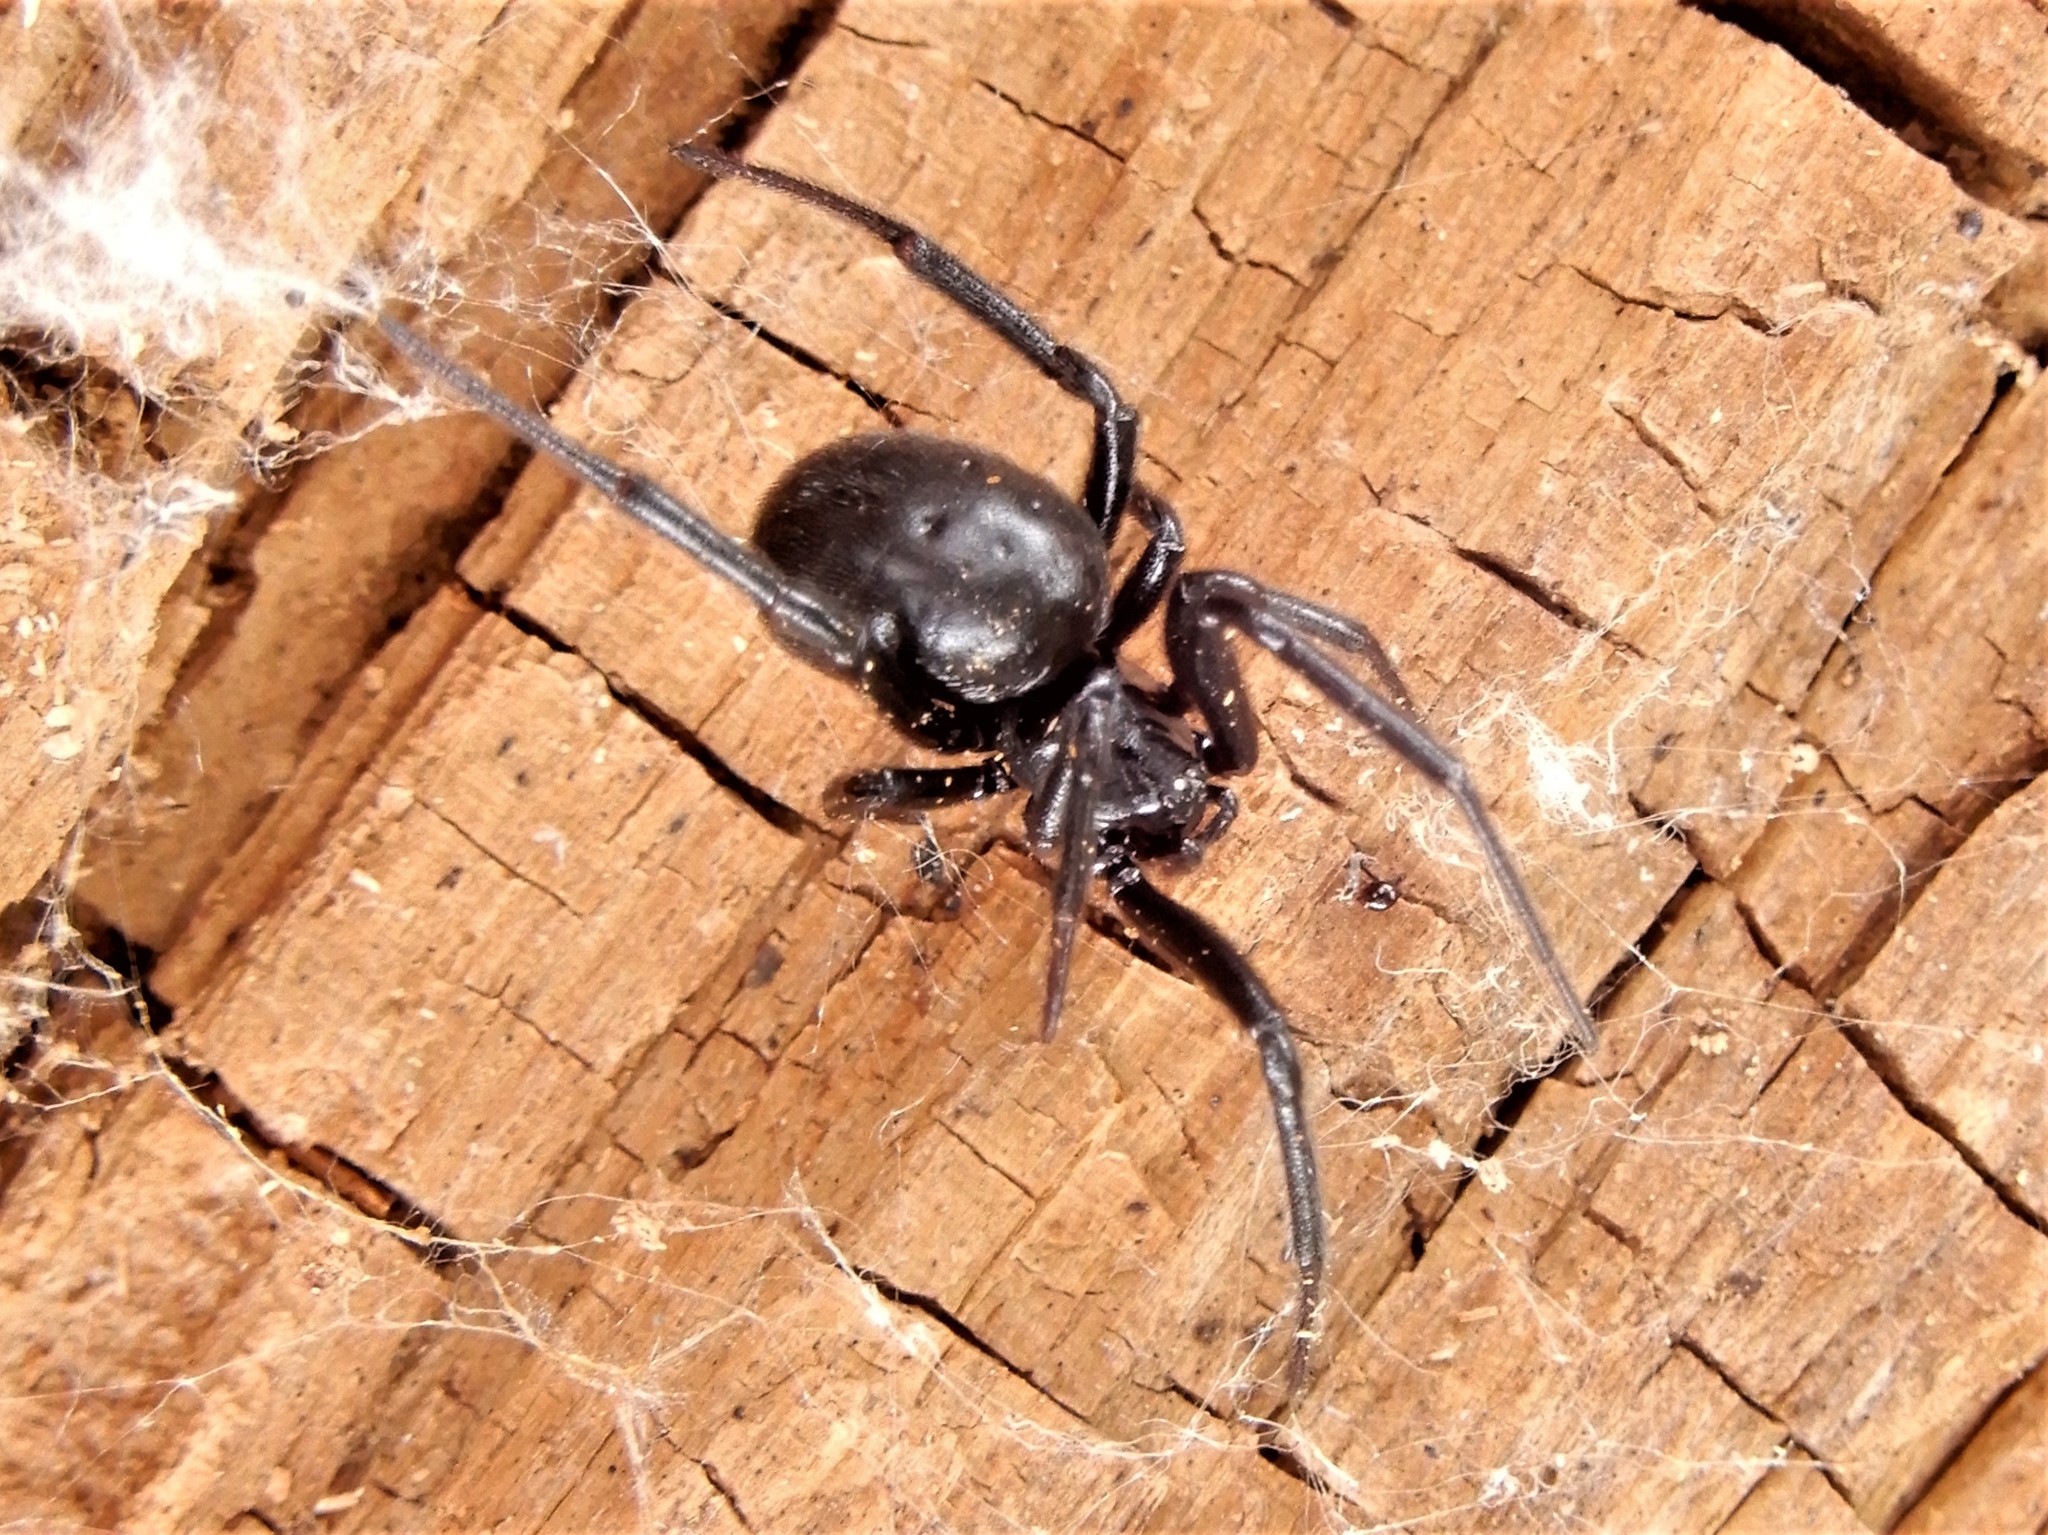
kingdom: Animalia
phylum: Arthropoda
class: Arachnida
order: Araneae
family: Theridiidae
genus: Steatoda
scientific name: Steatoda capensis
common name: Cobweb weaver
